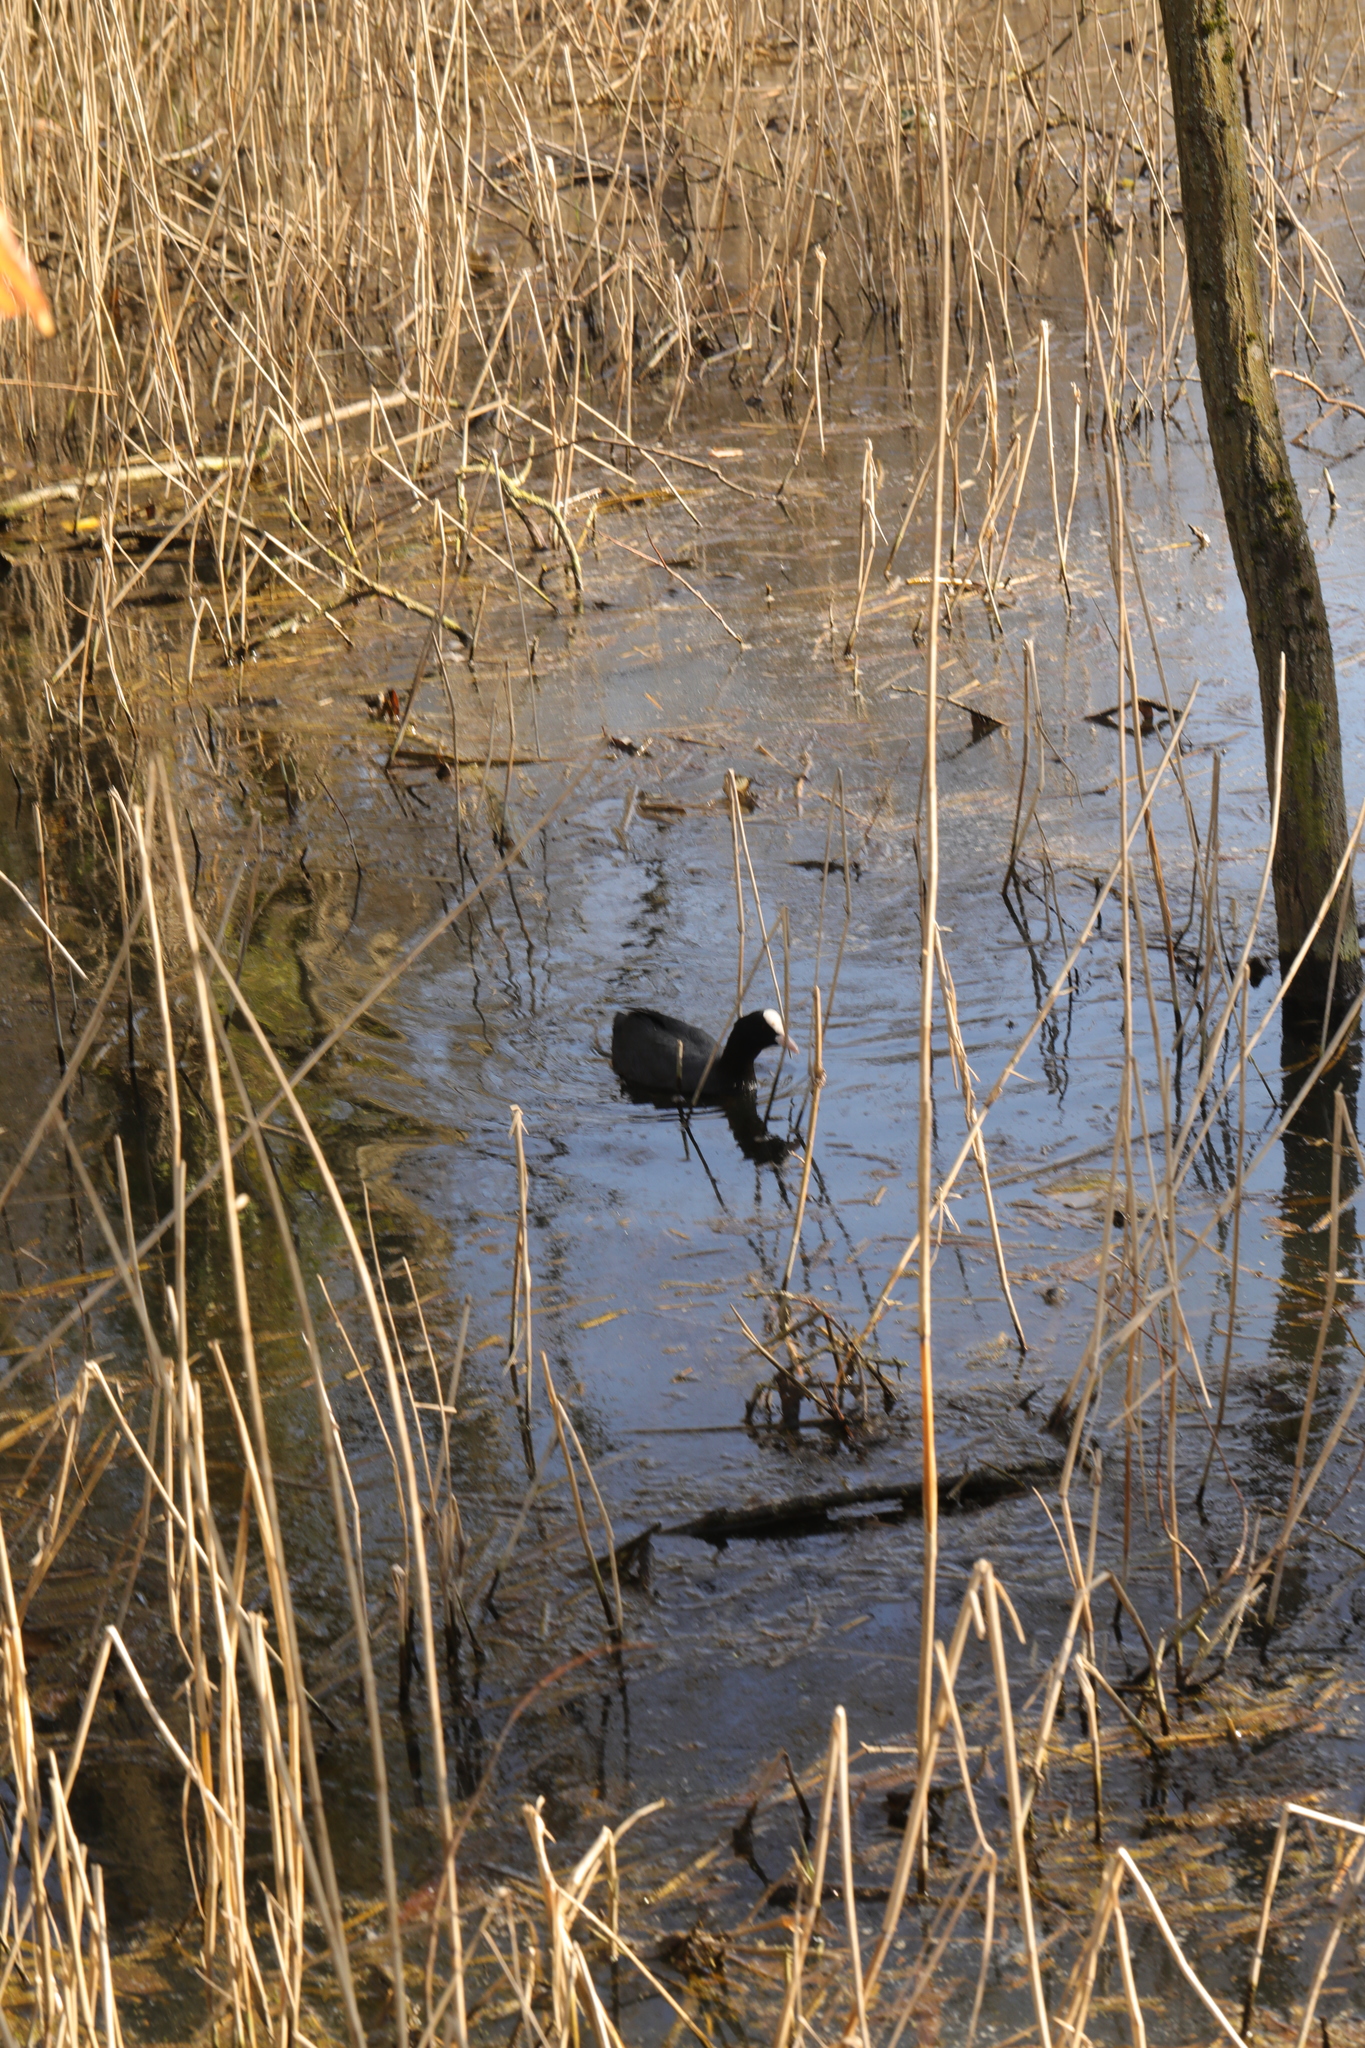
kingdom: Animalia
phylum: Chordata
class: Aves
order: Gruiformes
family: Rallidae
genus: Fulica
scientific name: Fulica atra
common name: Eurasian coot
